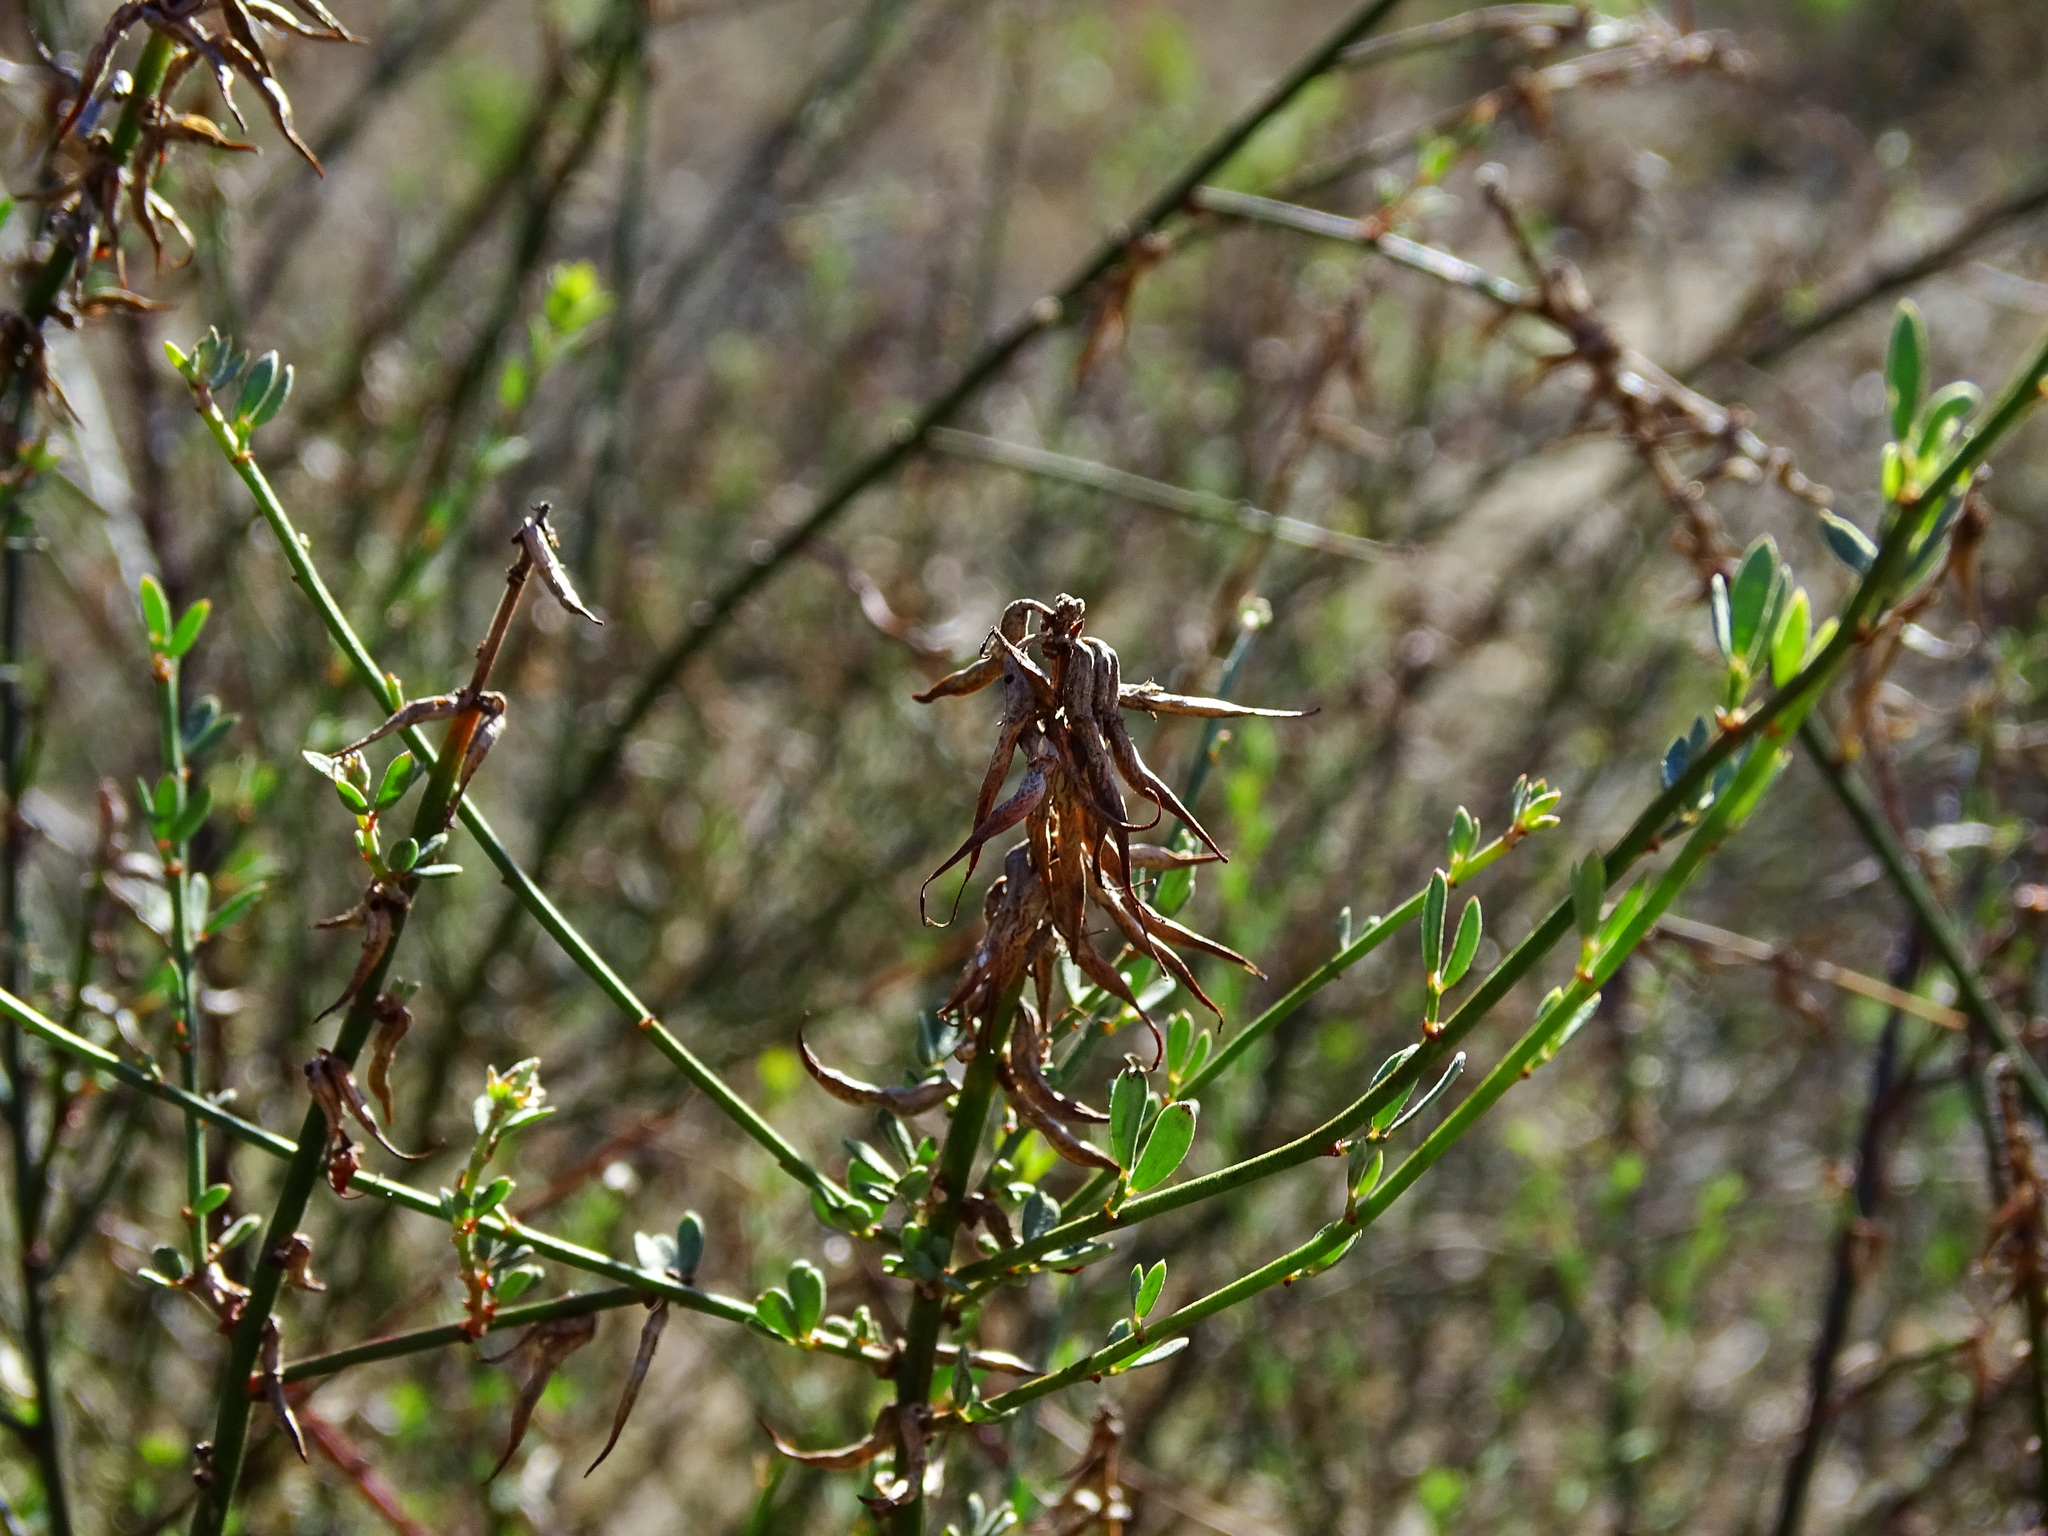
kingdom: Plantae
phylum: Tracheophyta
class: Magnoliopsida
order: Fabales
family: Fabaceae
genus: Acmispon
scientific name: Acmispon glaber
